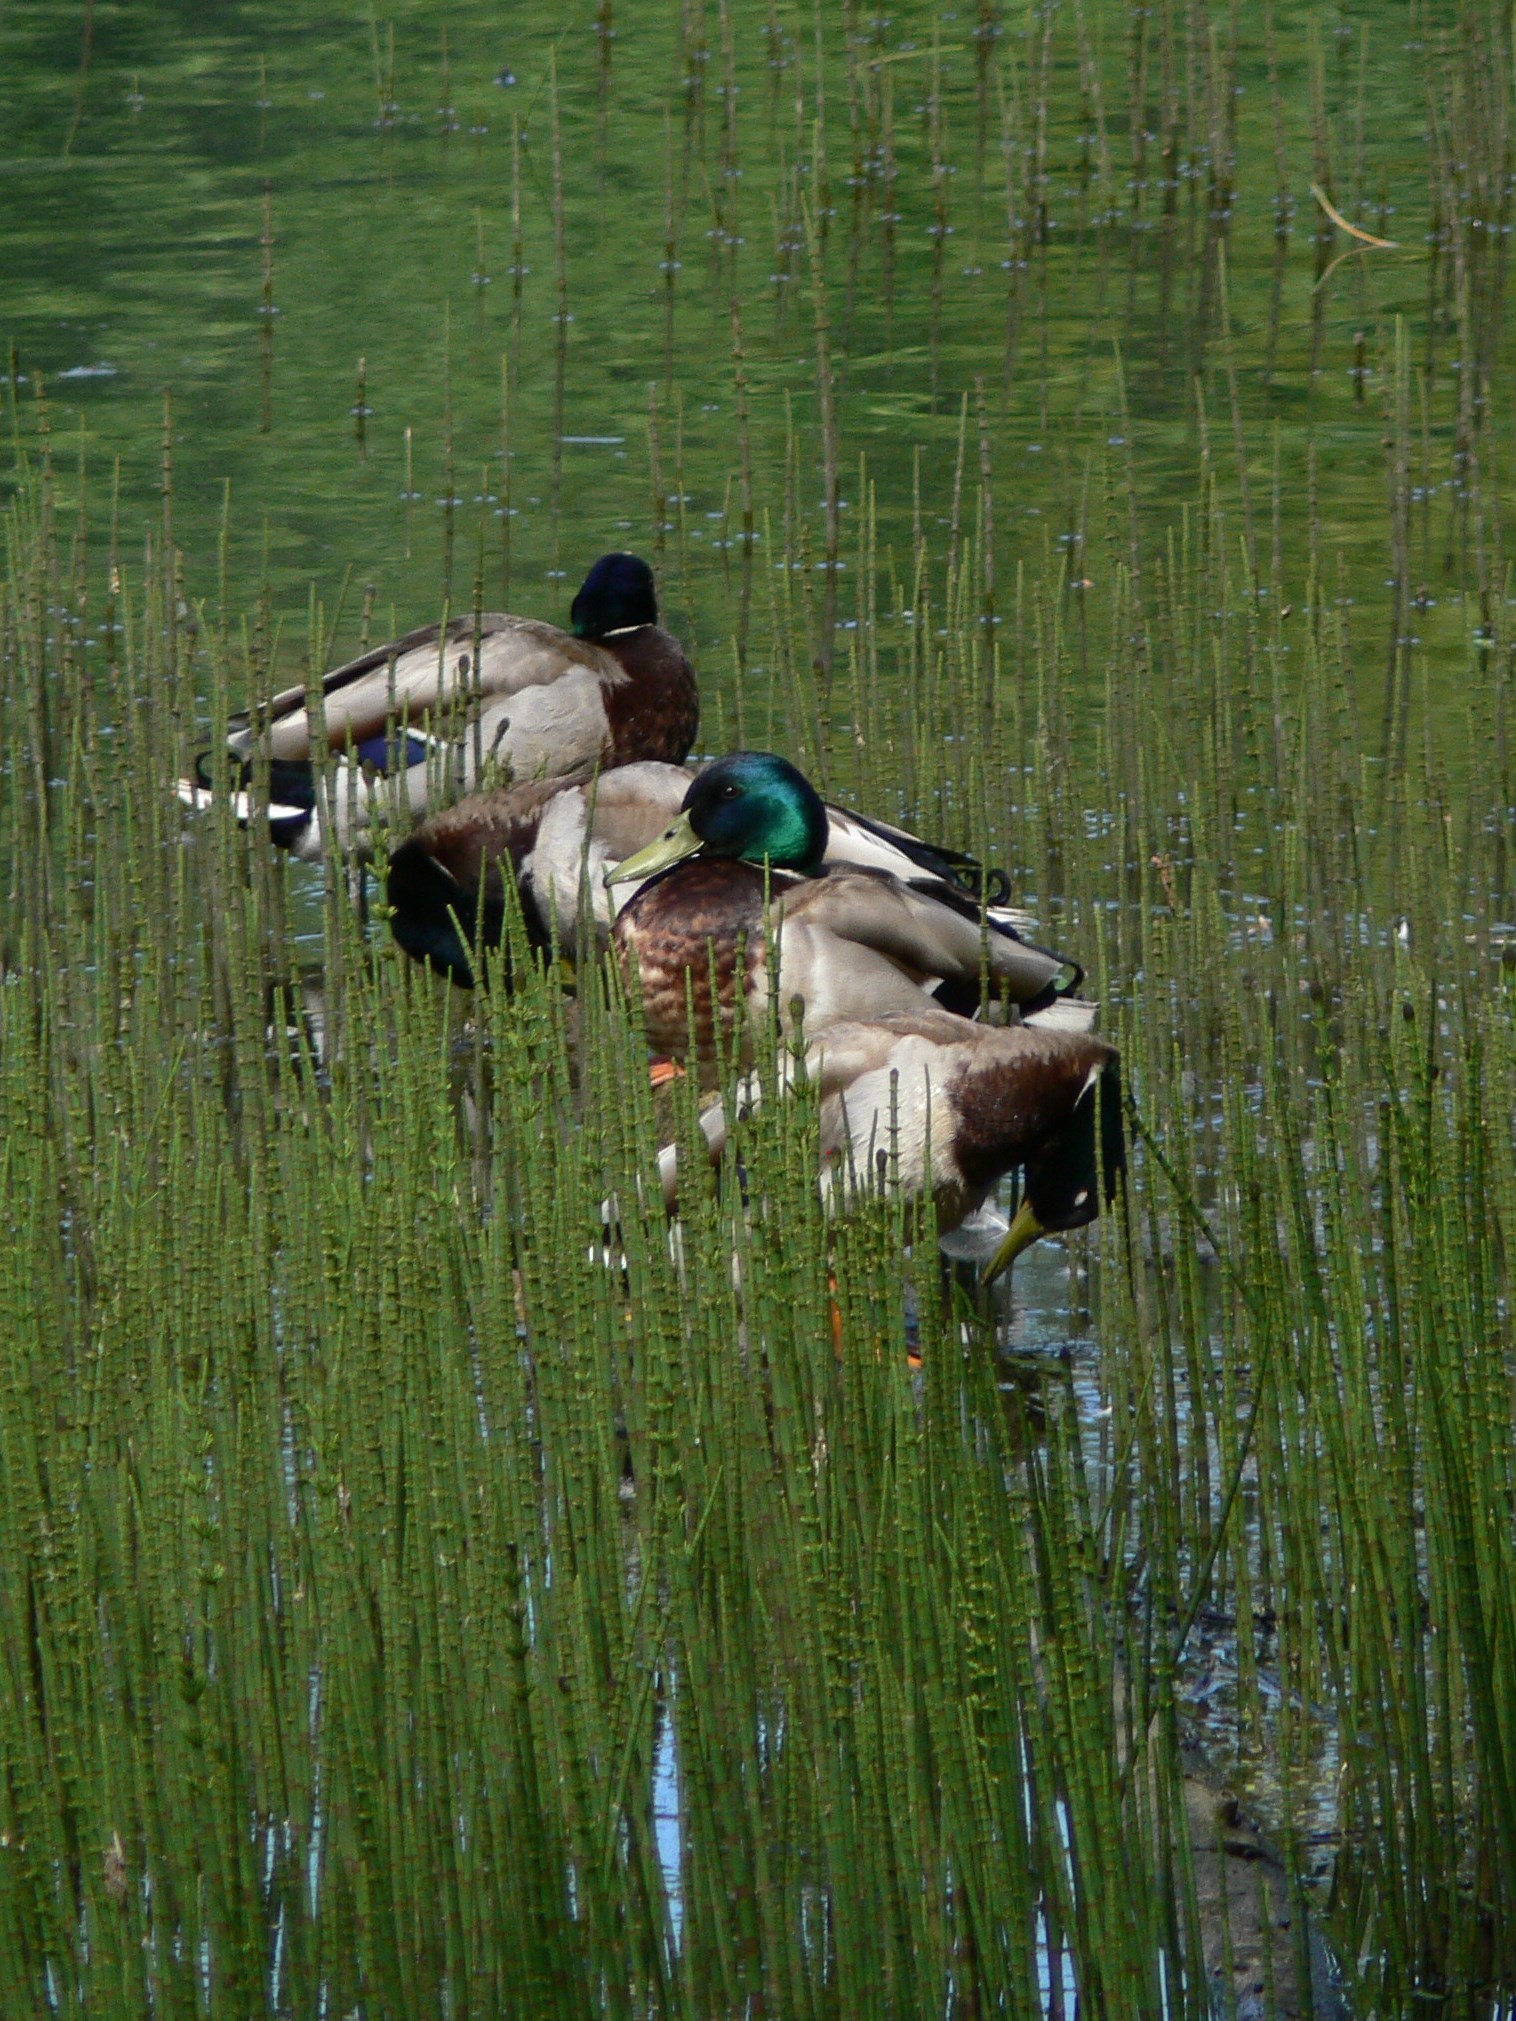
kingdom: Animalia
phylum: Chordata
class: Aves
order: Anseriformes
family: Anatidae
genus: Anas
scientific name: Anas platyrhynchos
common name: Mallard
